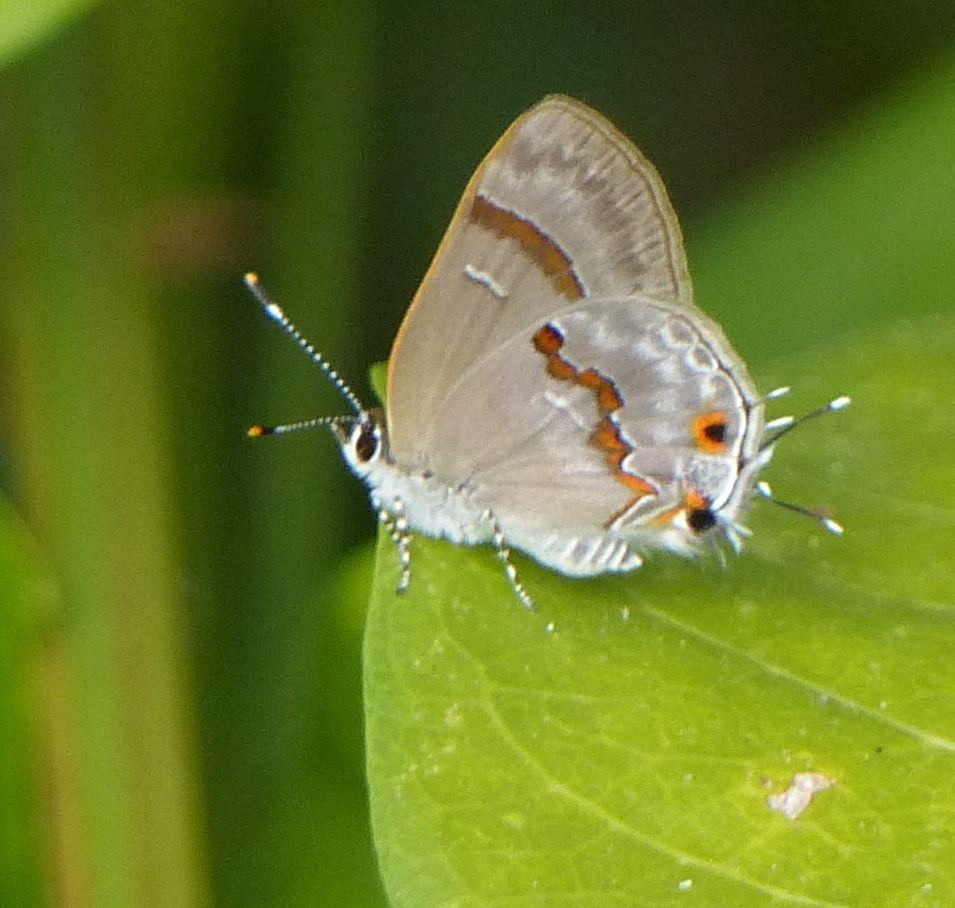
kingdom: Animalia
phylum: Arthropoda
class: Insecta
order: Lepidoptera
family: Lycaenidae
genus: Thecla
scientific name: Thecla ecbatana
